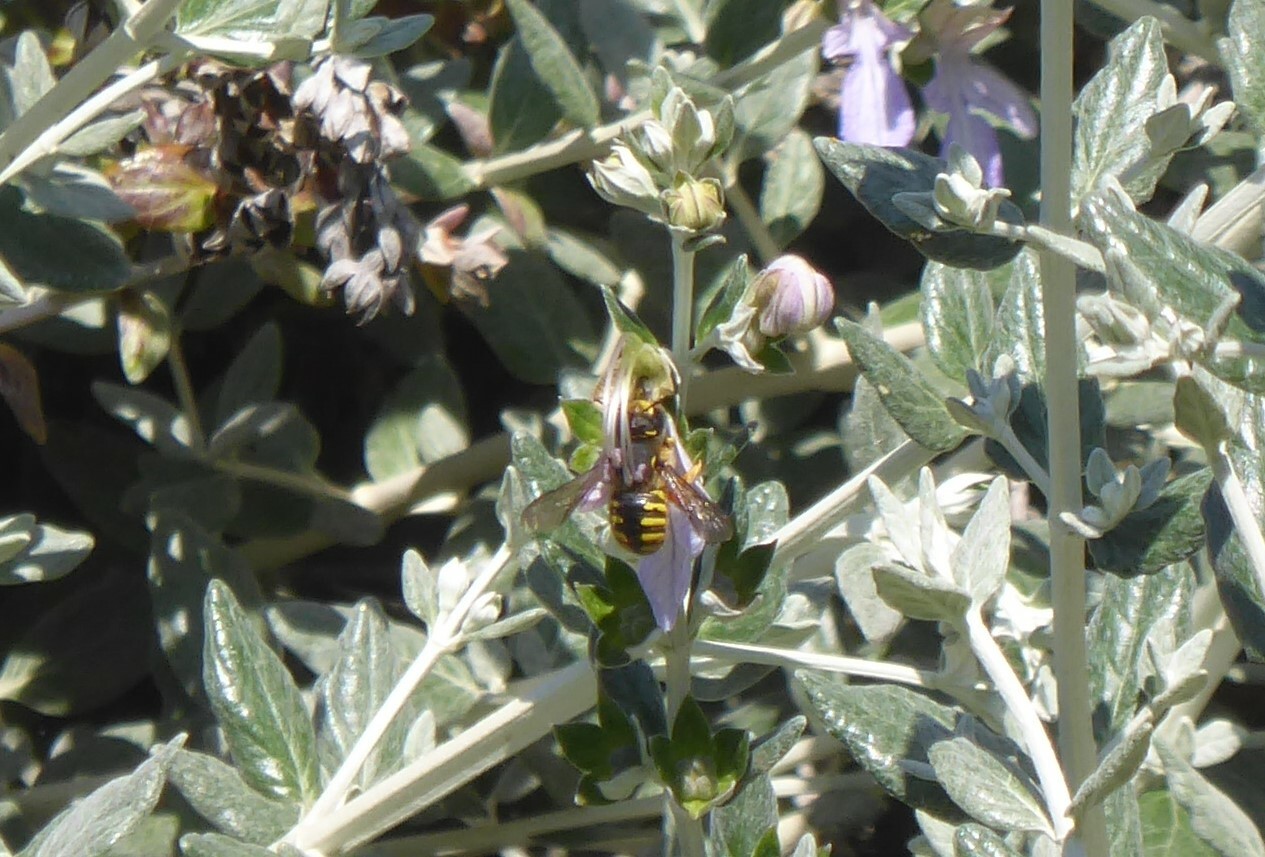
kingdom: Animalia
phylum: Arthropoda
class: Insecta
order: Hymenoptera
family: Megachilidae
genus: Anthidium
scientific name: Anthidium manicatum
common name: Wool carder bee
